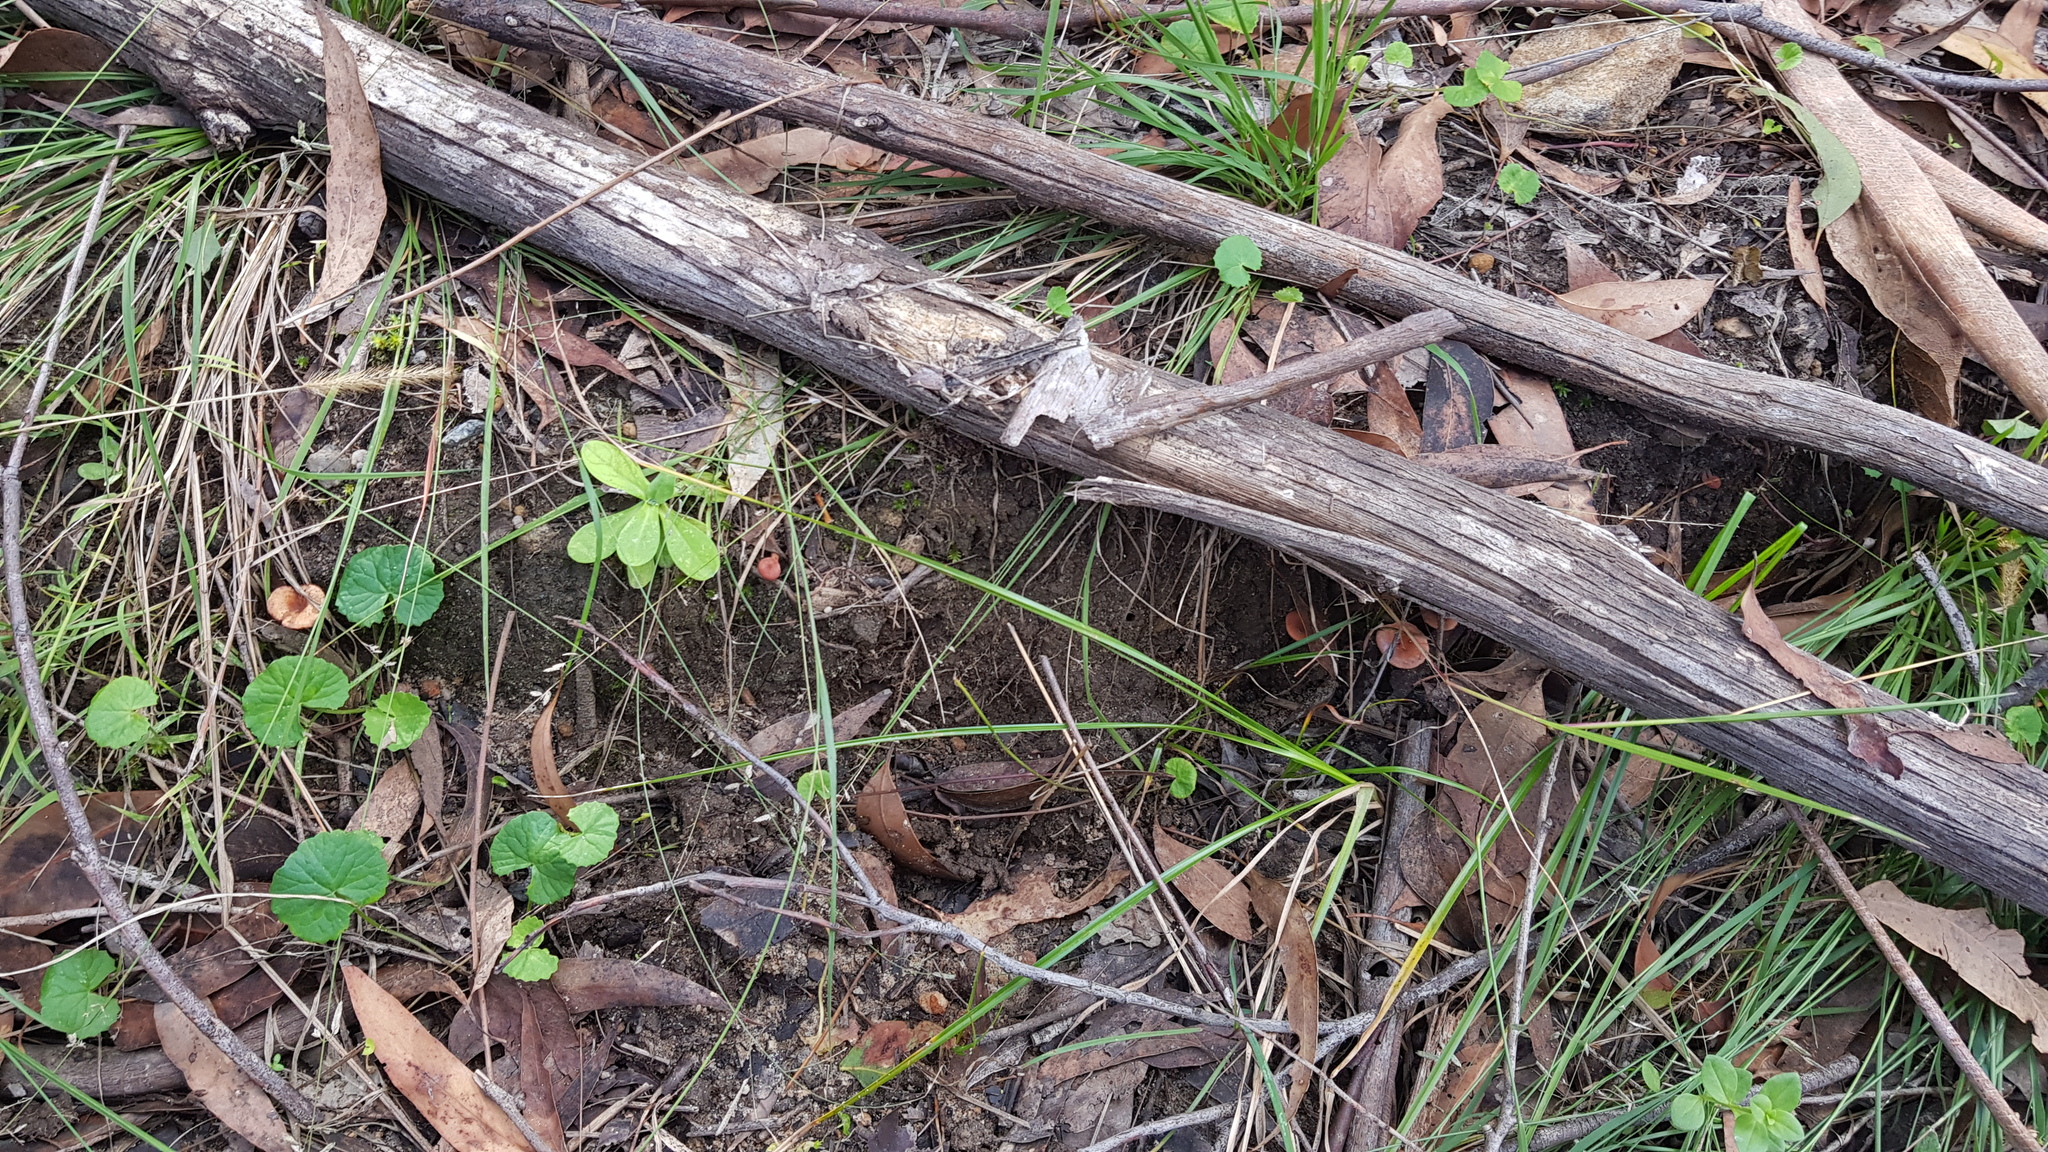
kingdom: Fungi
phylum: Basidiomycota
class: Agaricomycetes
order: Russulales
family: Russulaceae
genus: Lactarius
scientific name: Lactarius eucalypti
